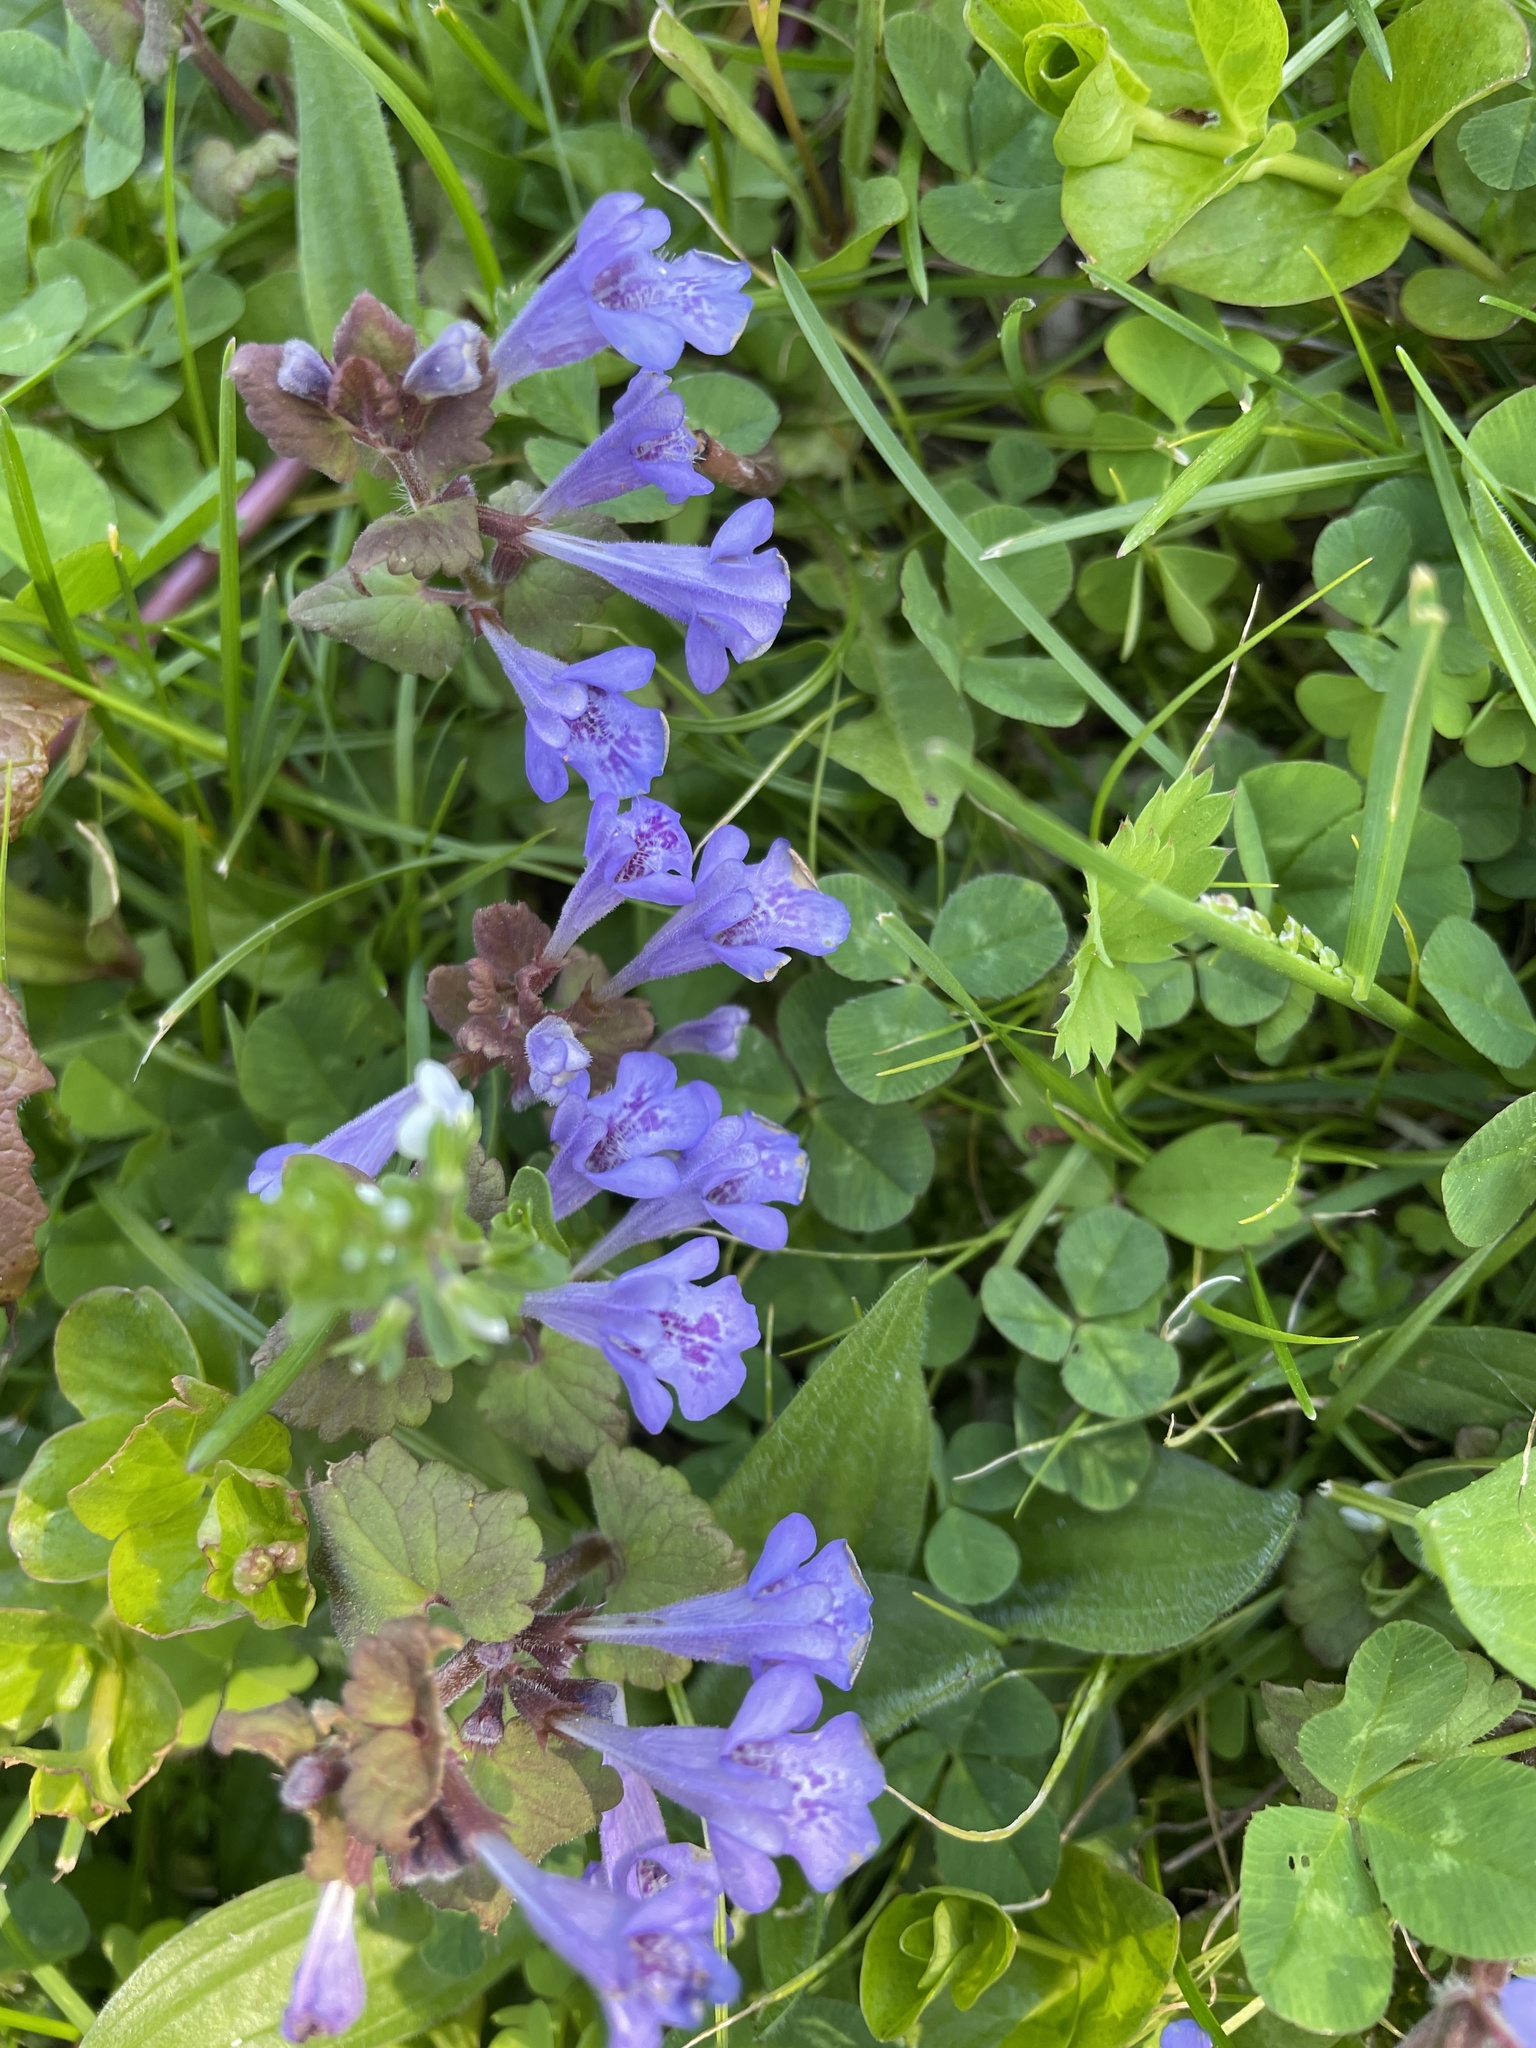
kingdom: Plantae
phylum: Tracheophyta
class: Magnoliopsida
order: Lamiales
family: Lamiaceae
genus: Glechoma
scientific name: Glechoma hederacea
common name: Ground ivy
